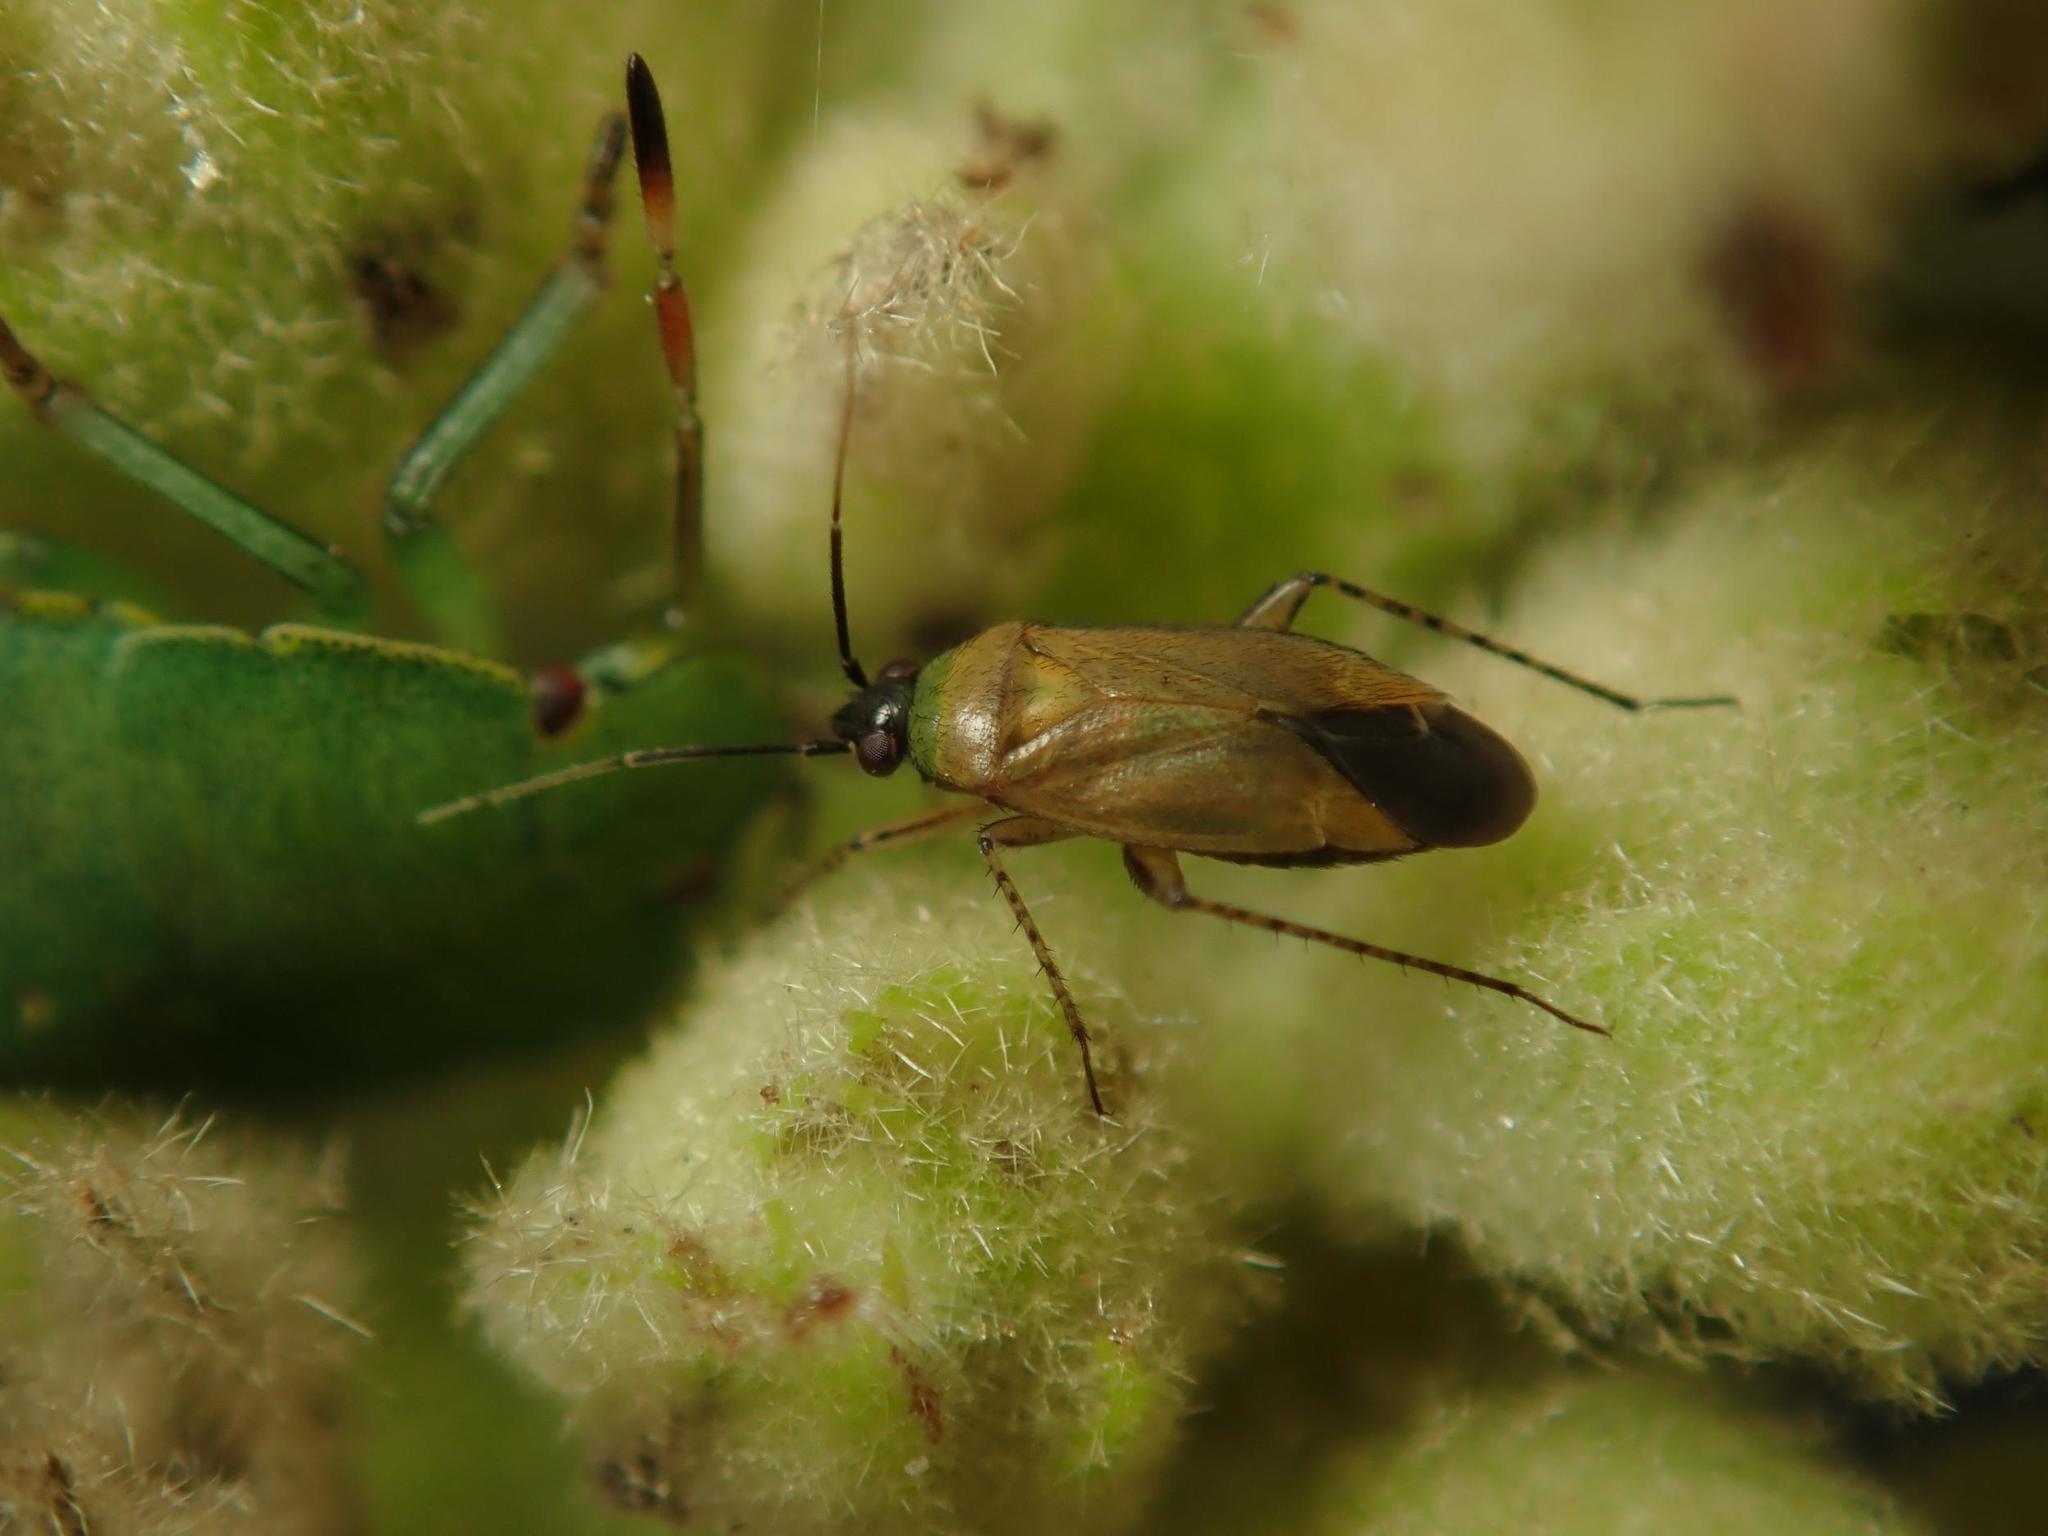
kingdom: Animalia
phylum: Arthropoda
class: Insecta
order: Hemiptera
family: Miridae
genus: Plagiognathus
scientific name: Plagiognathus arbustorum
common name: Plant bug
